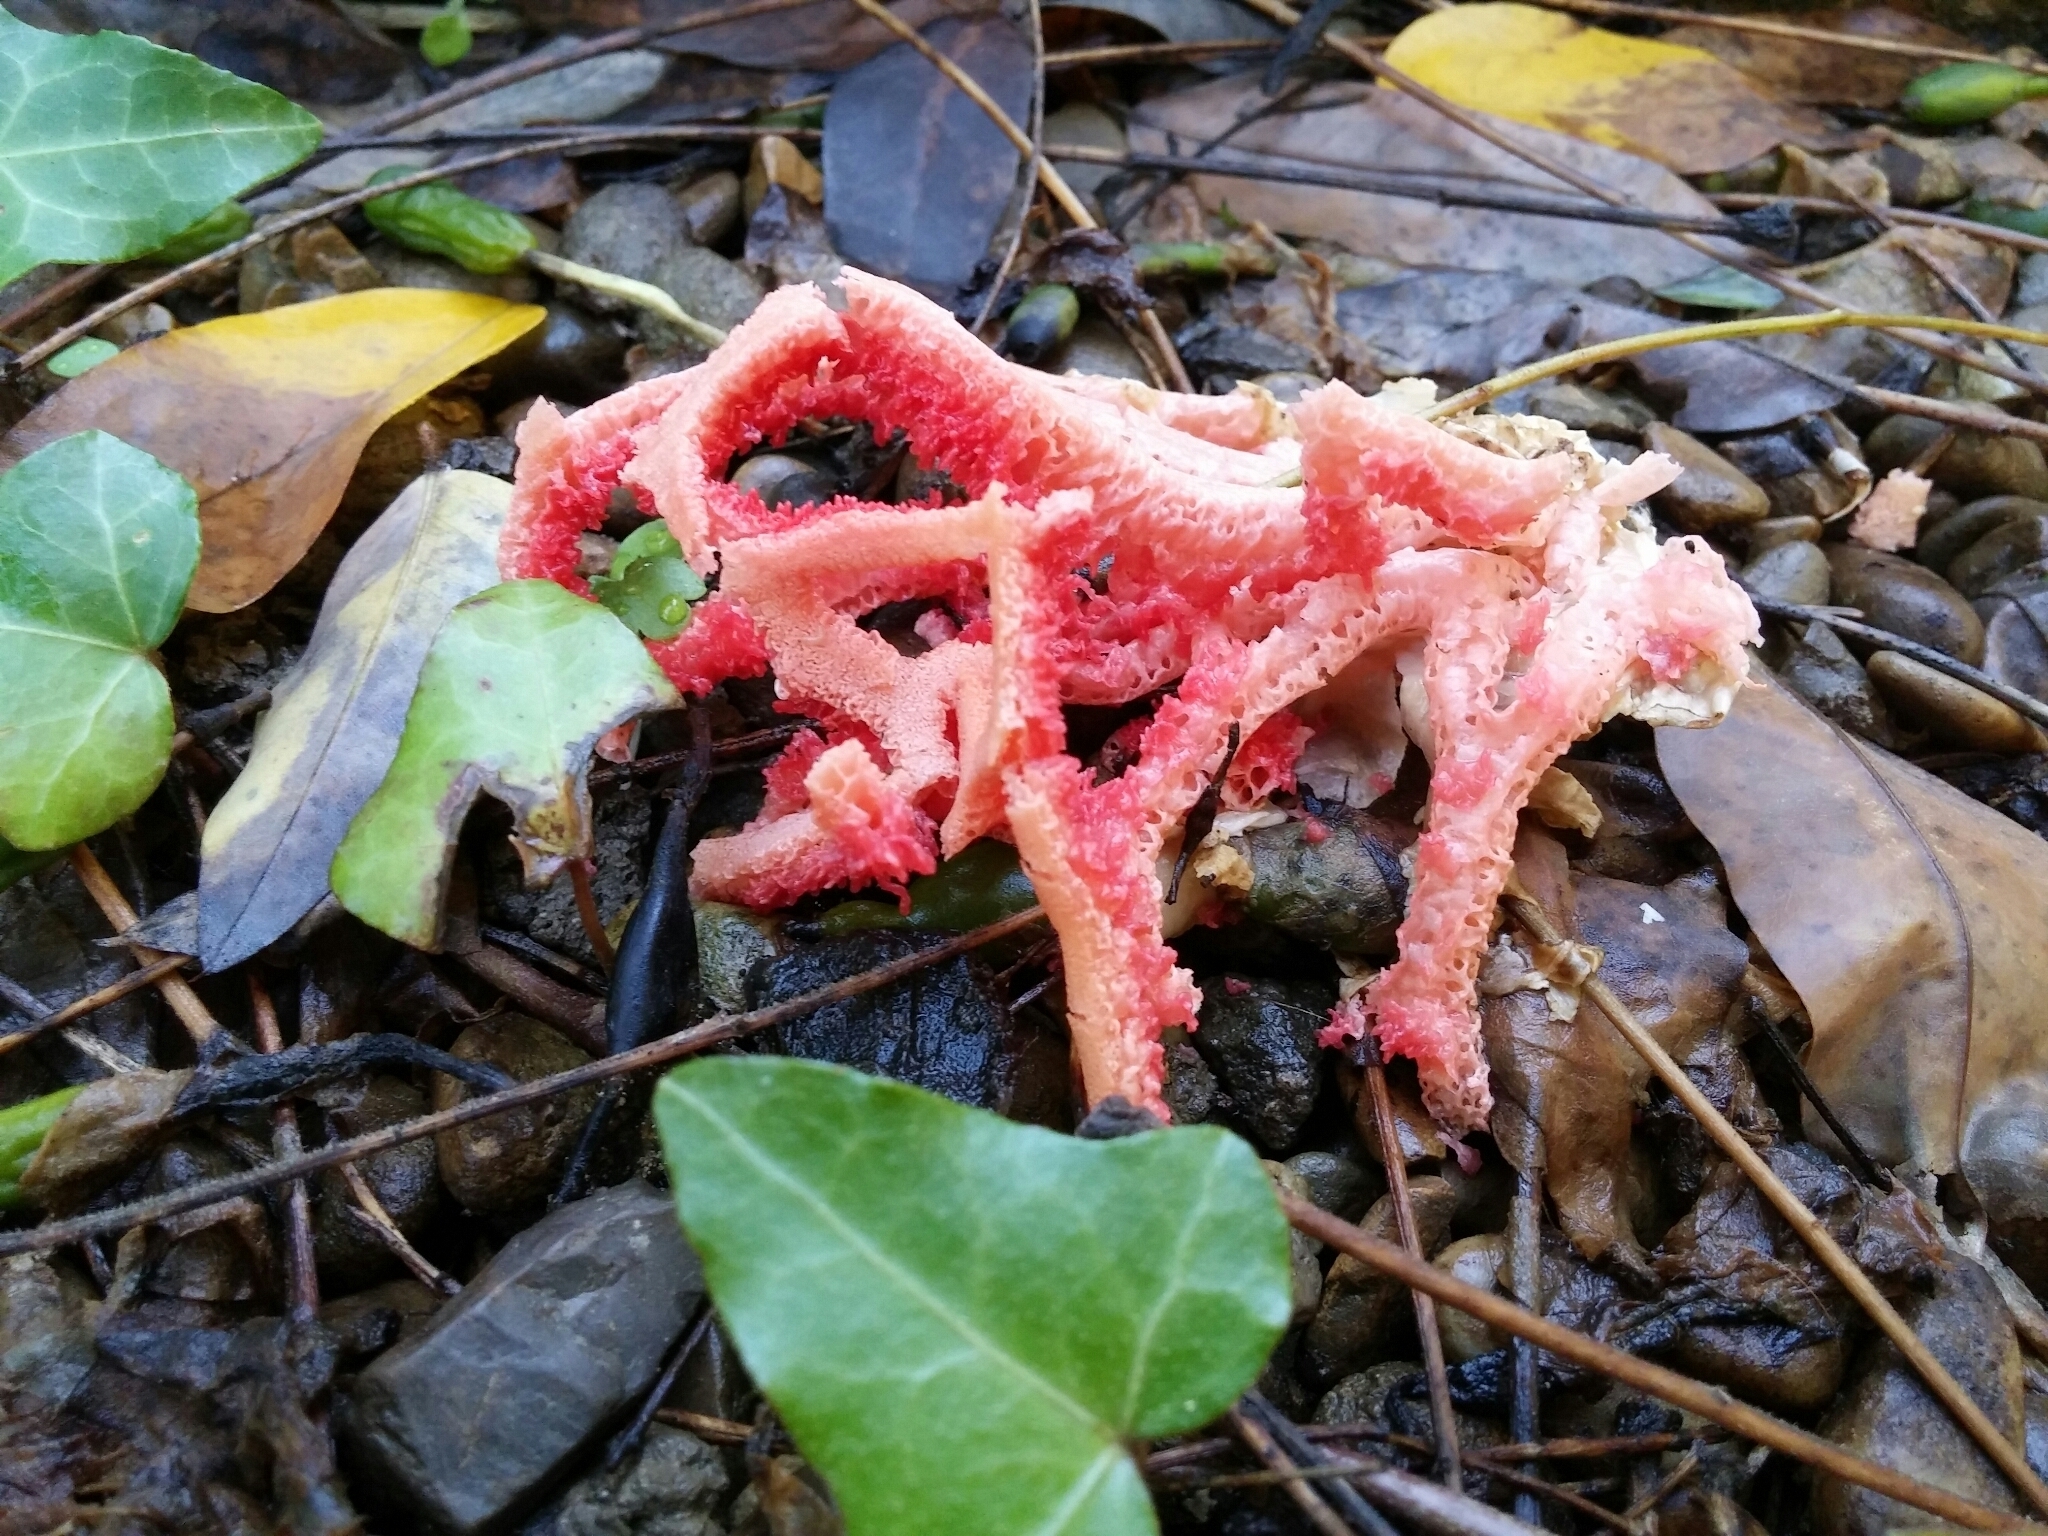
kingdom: Fungi
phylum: Basidiomycota
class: Agaricomycetes
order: Phallales
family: Phallaceae
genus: Clathrus
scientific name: Clathrus ruber
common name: Red cage
